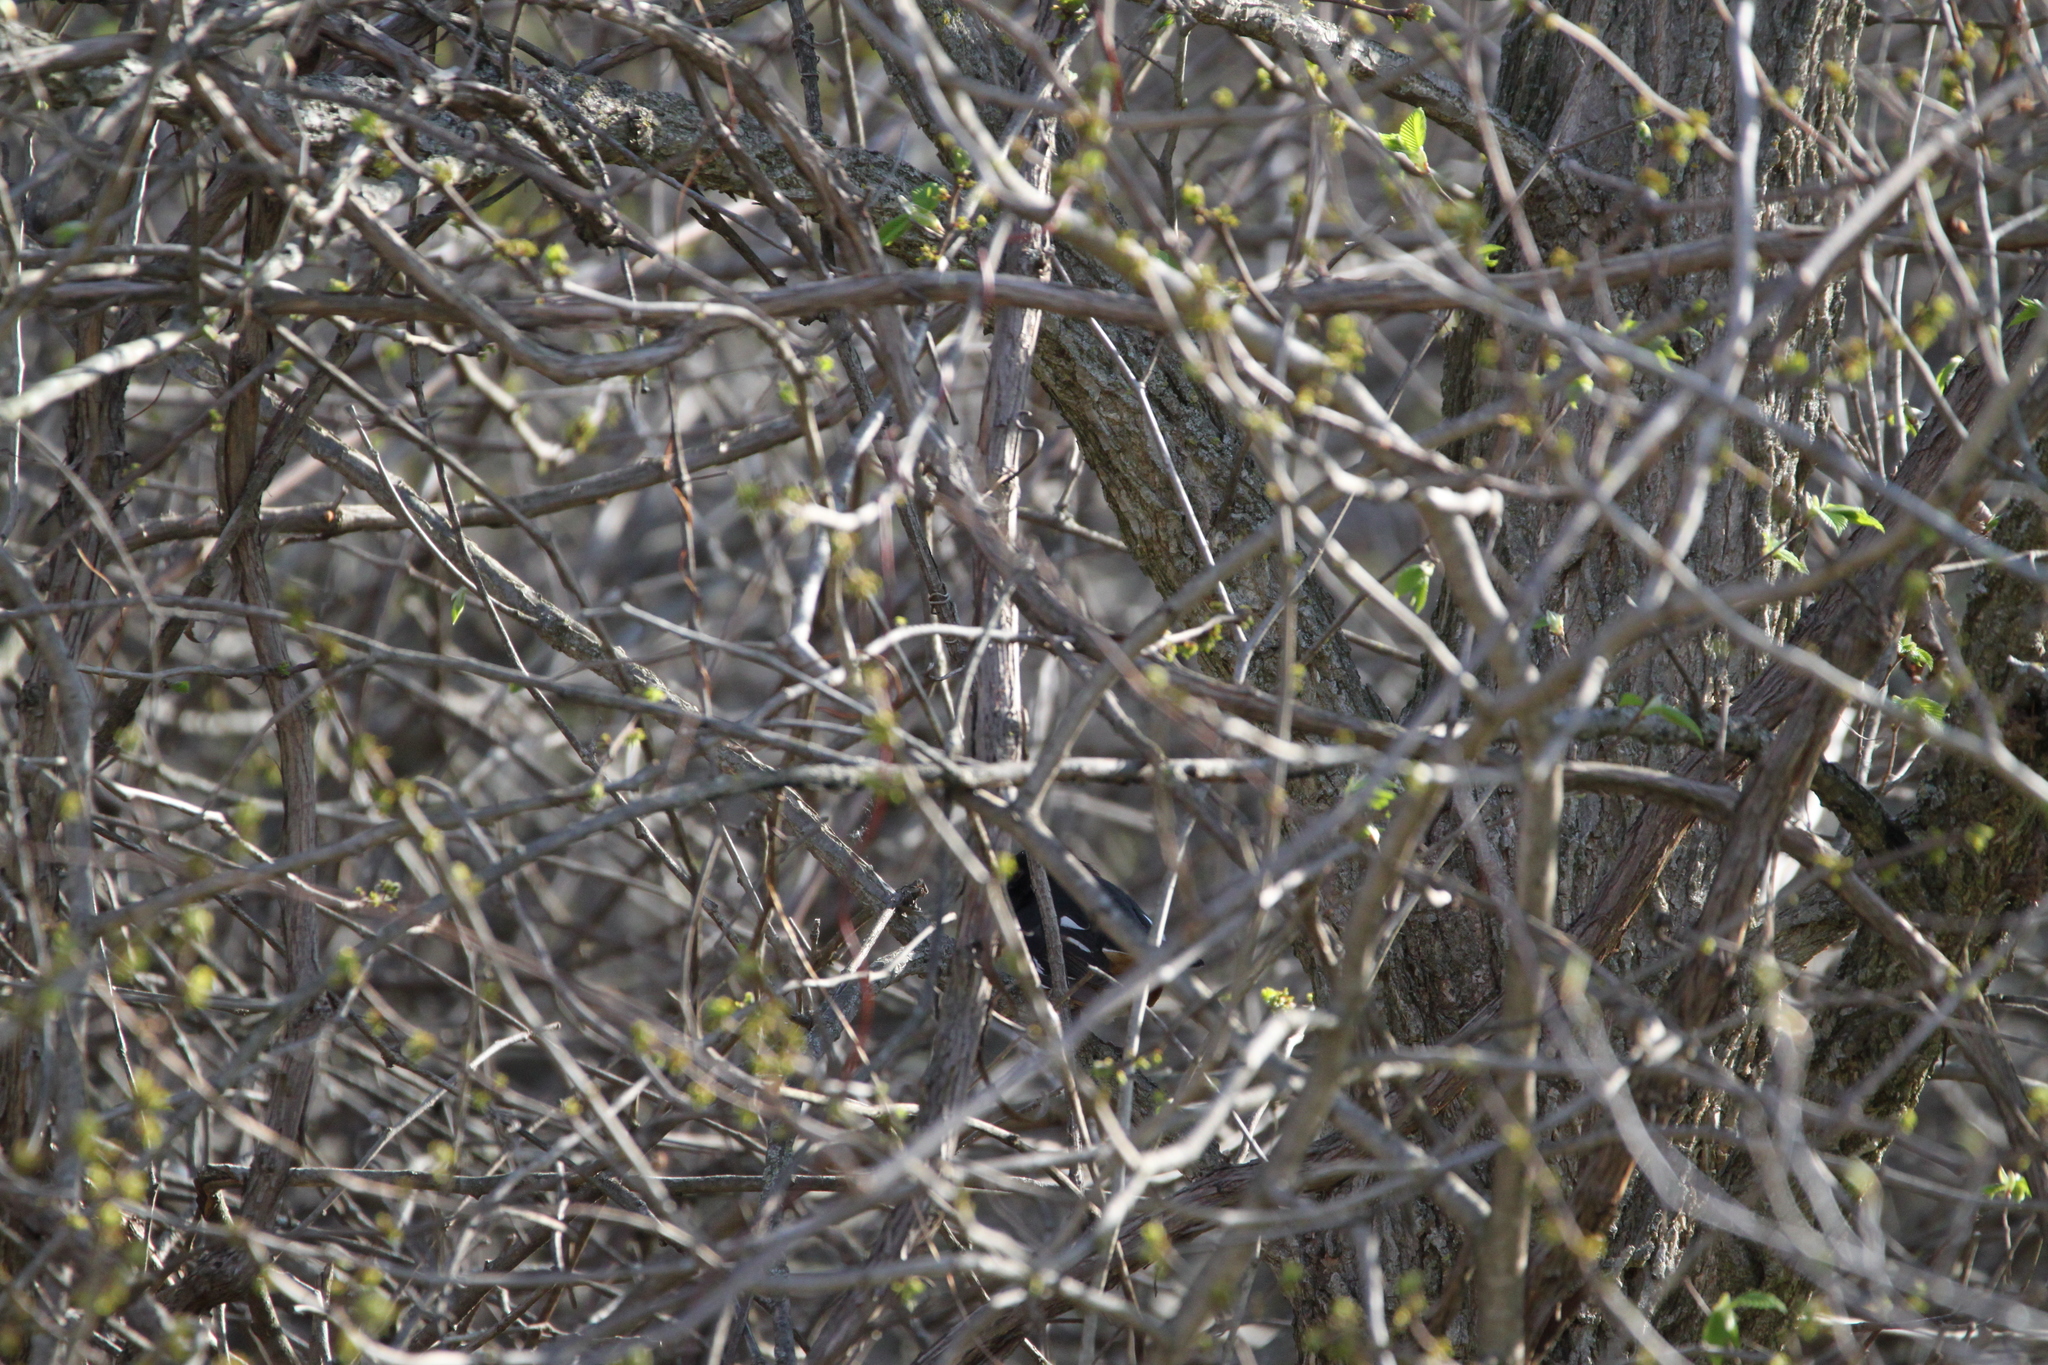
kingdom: Animalia
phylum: Chordata
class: Aves
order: Passeriformes
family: Passerellidae
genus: Pipilo
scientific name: Pipilo erythrophthalmus
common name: Eastern towhee
